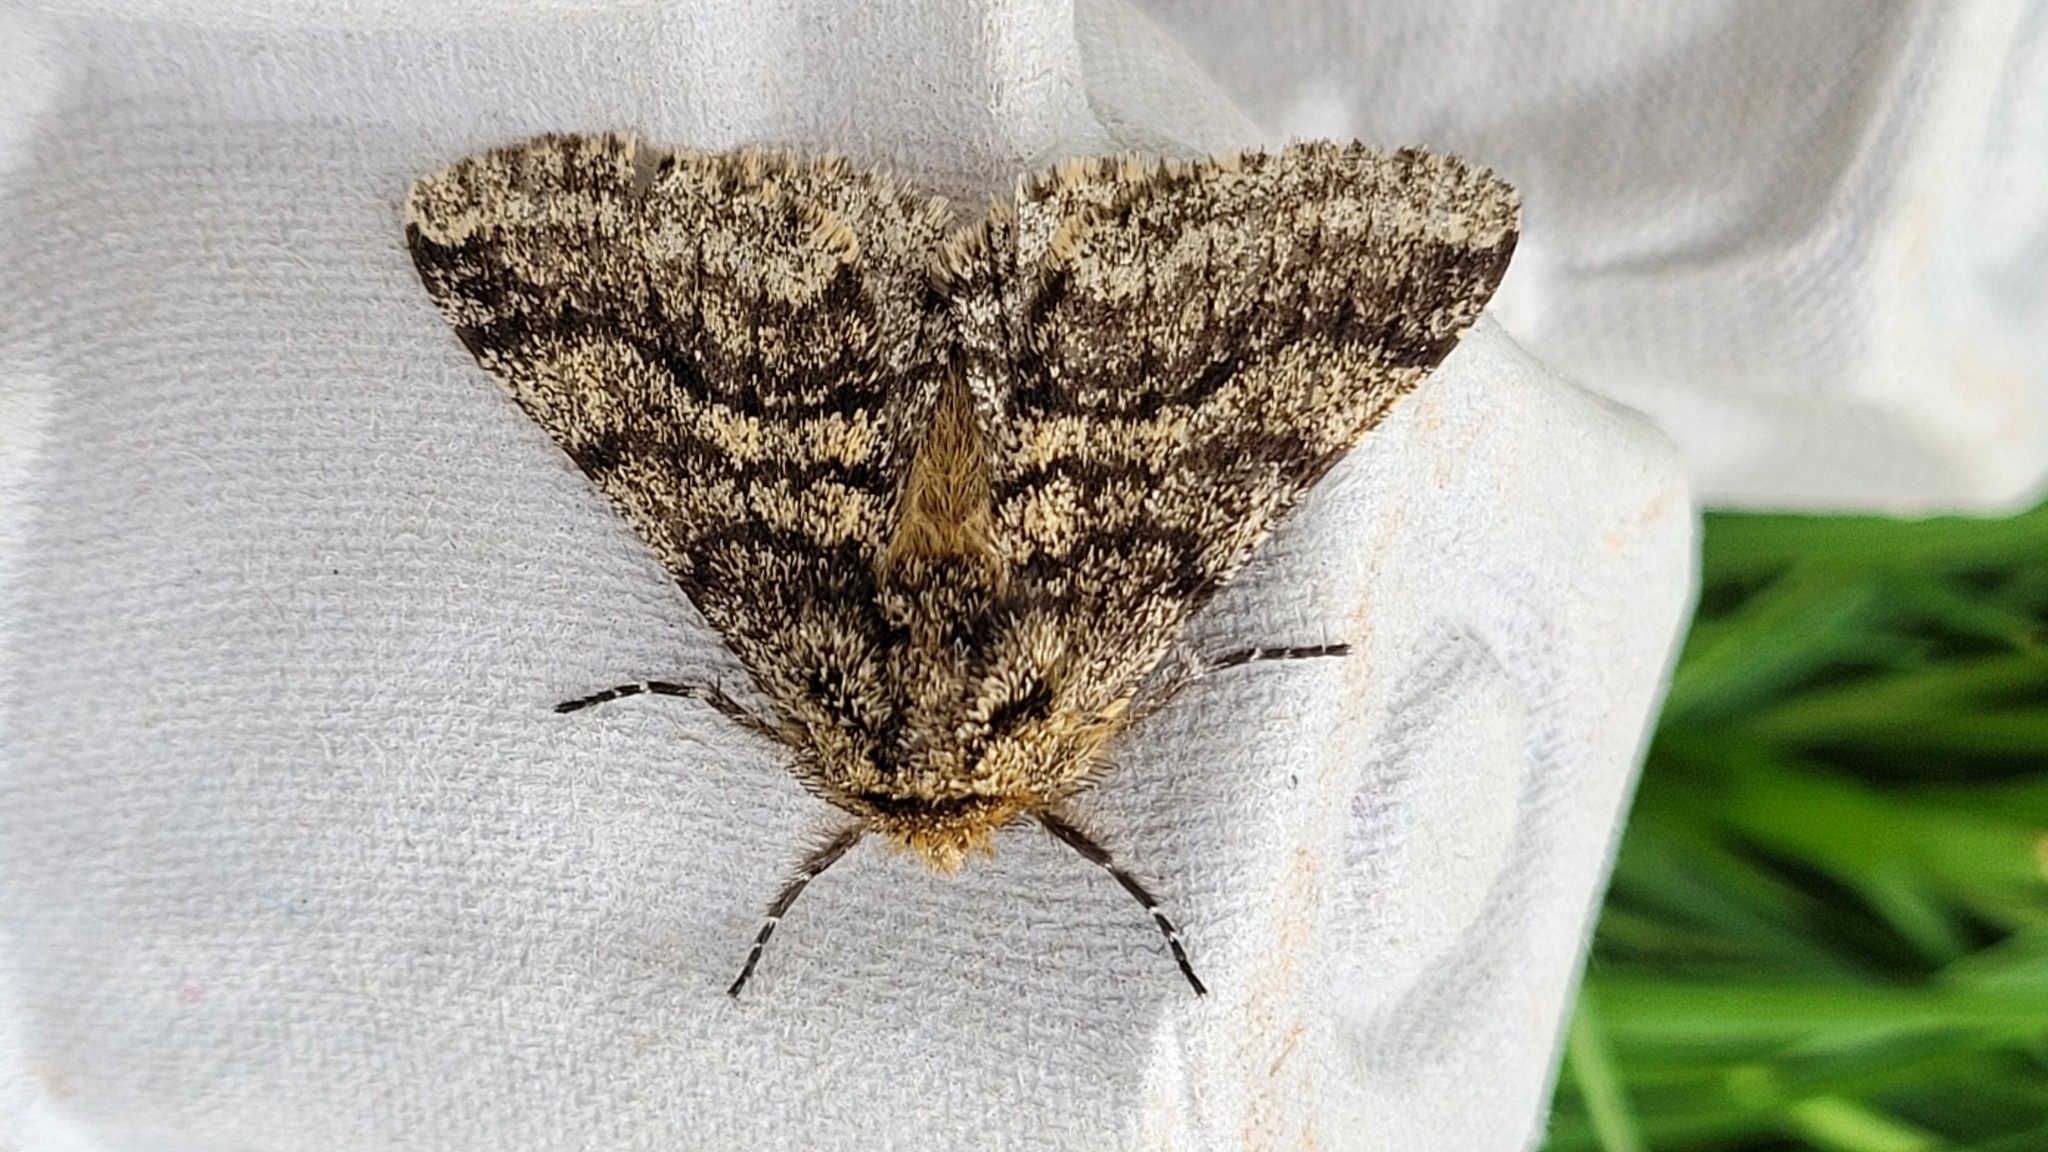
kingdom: Animalia
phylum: Arthropoda
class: Insecta
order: Lepidoptera
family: Geometridae
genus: Lycia
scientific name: Lycia hirtaria
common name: Brindled beauty
